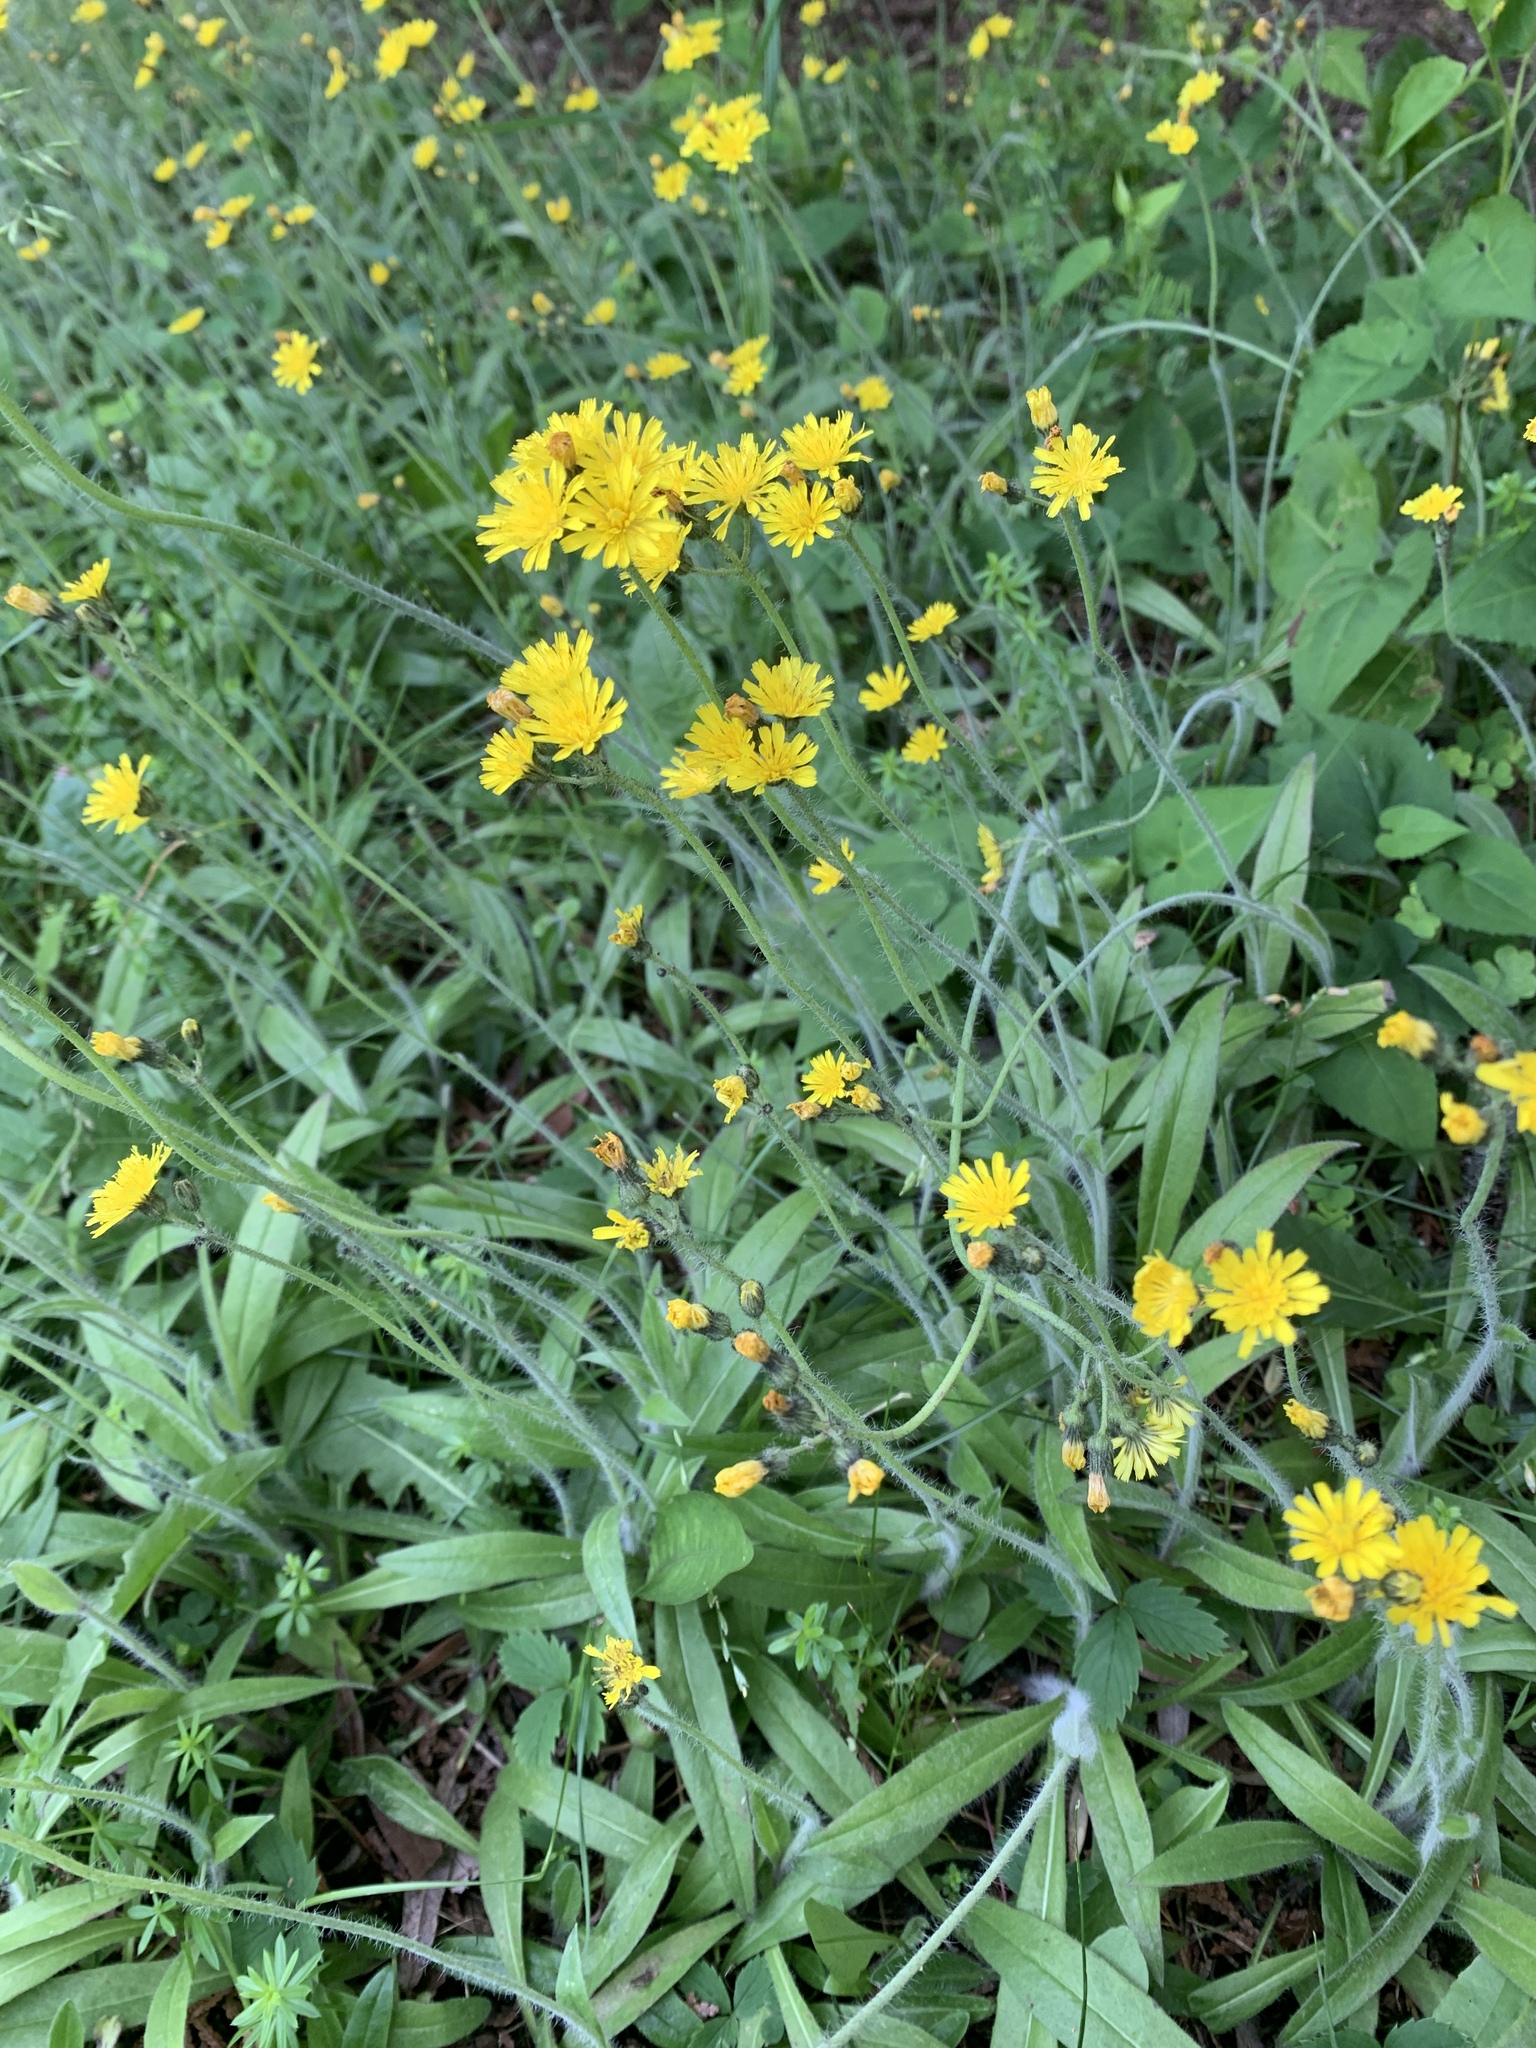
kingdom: Plantae
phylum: Tracheophyta
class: Magnoliopsida
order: Asterales
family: Asteraceae
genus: Pilosella
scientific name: Pilosella caespitosa
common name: Yellow fox-and-cubs
